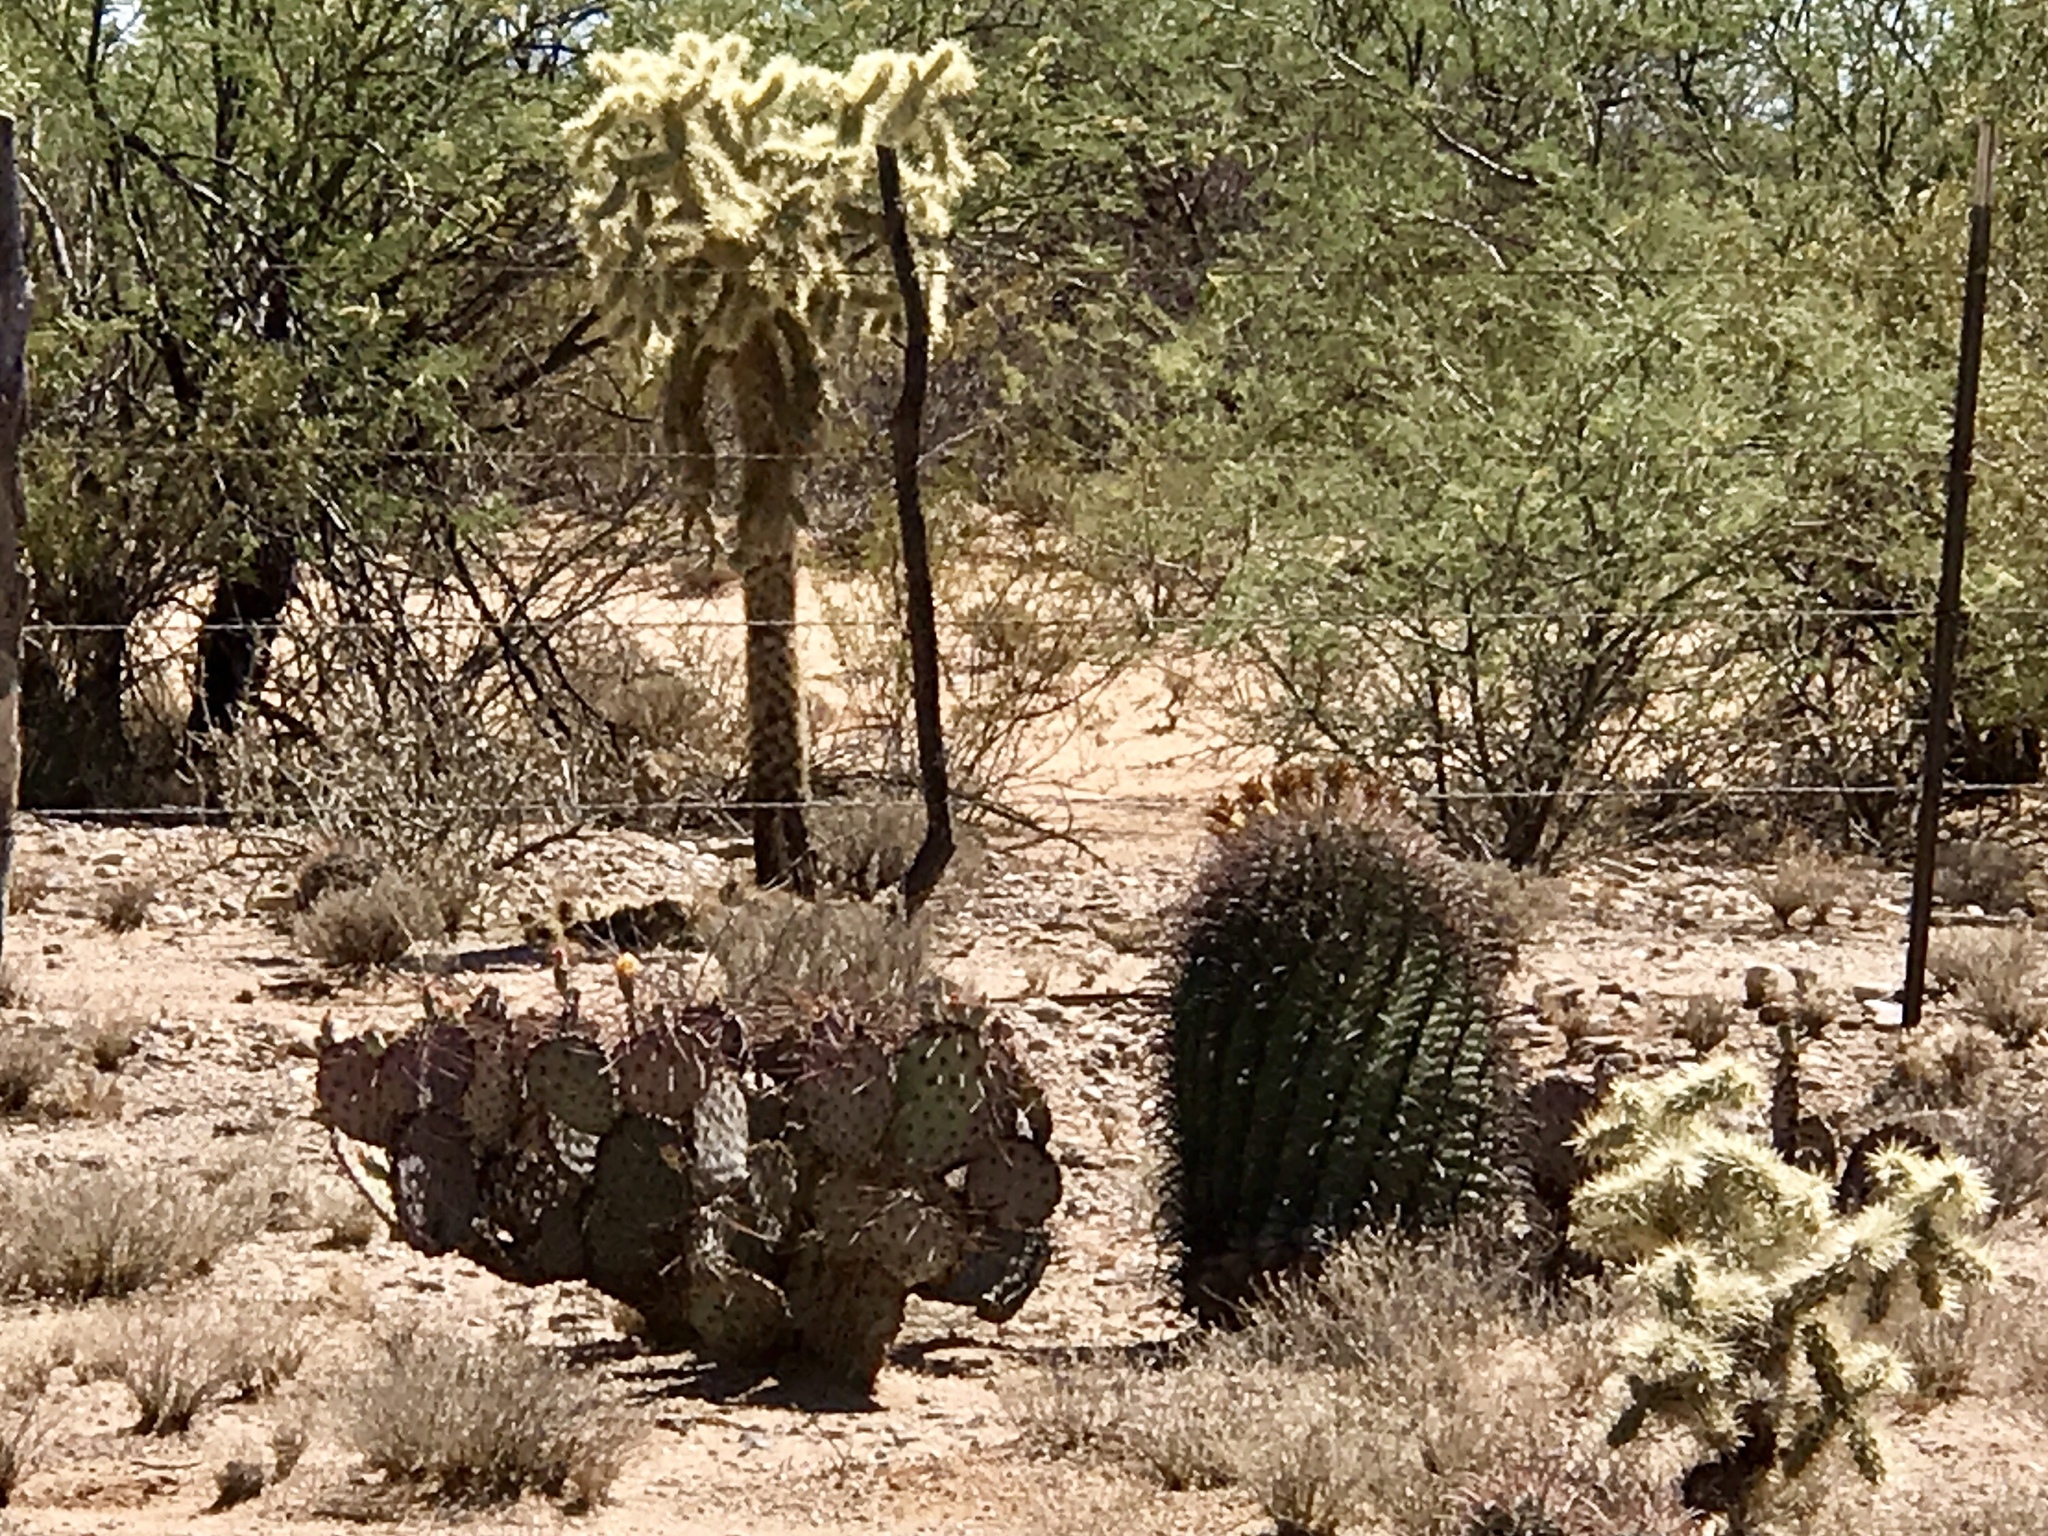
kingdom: Plantae
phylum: Tracheophyta
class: Magnoliopsida
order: Caryophyllales
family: Cactaceae
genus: Ferocactus
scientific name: Ferocactus wislizeni
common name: Candy barrel cactus
